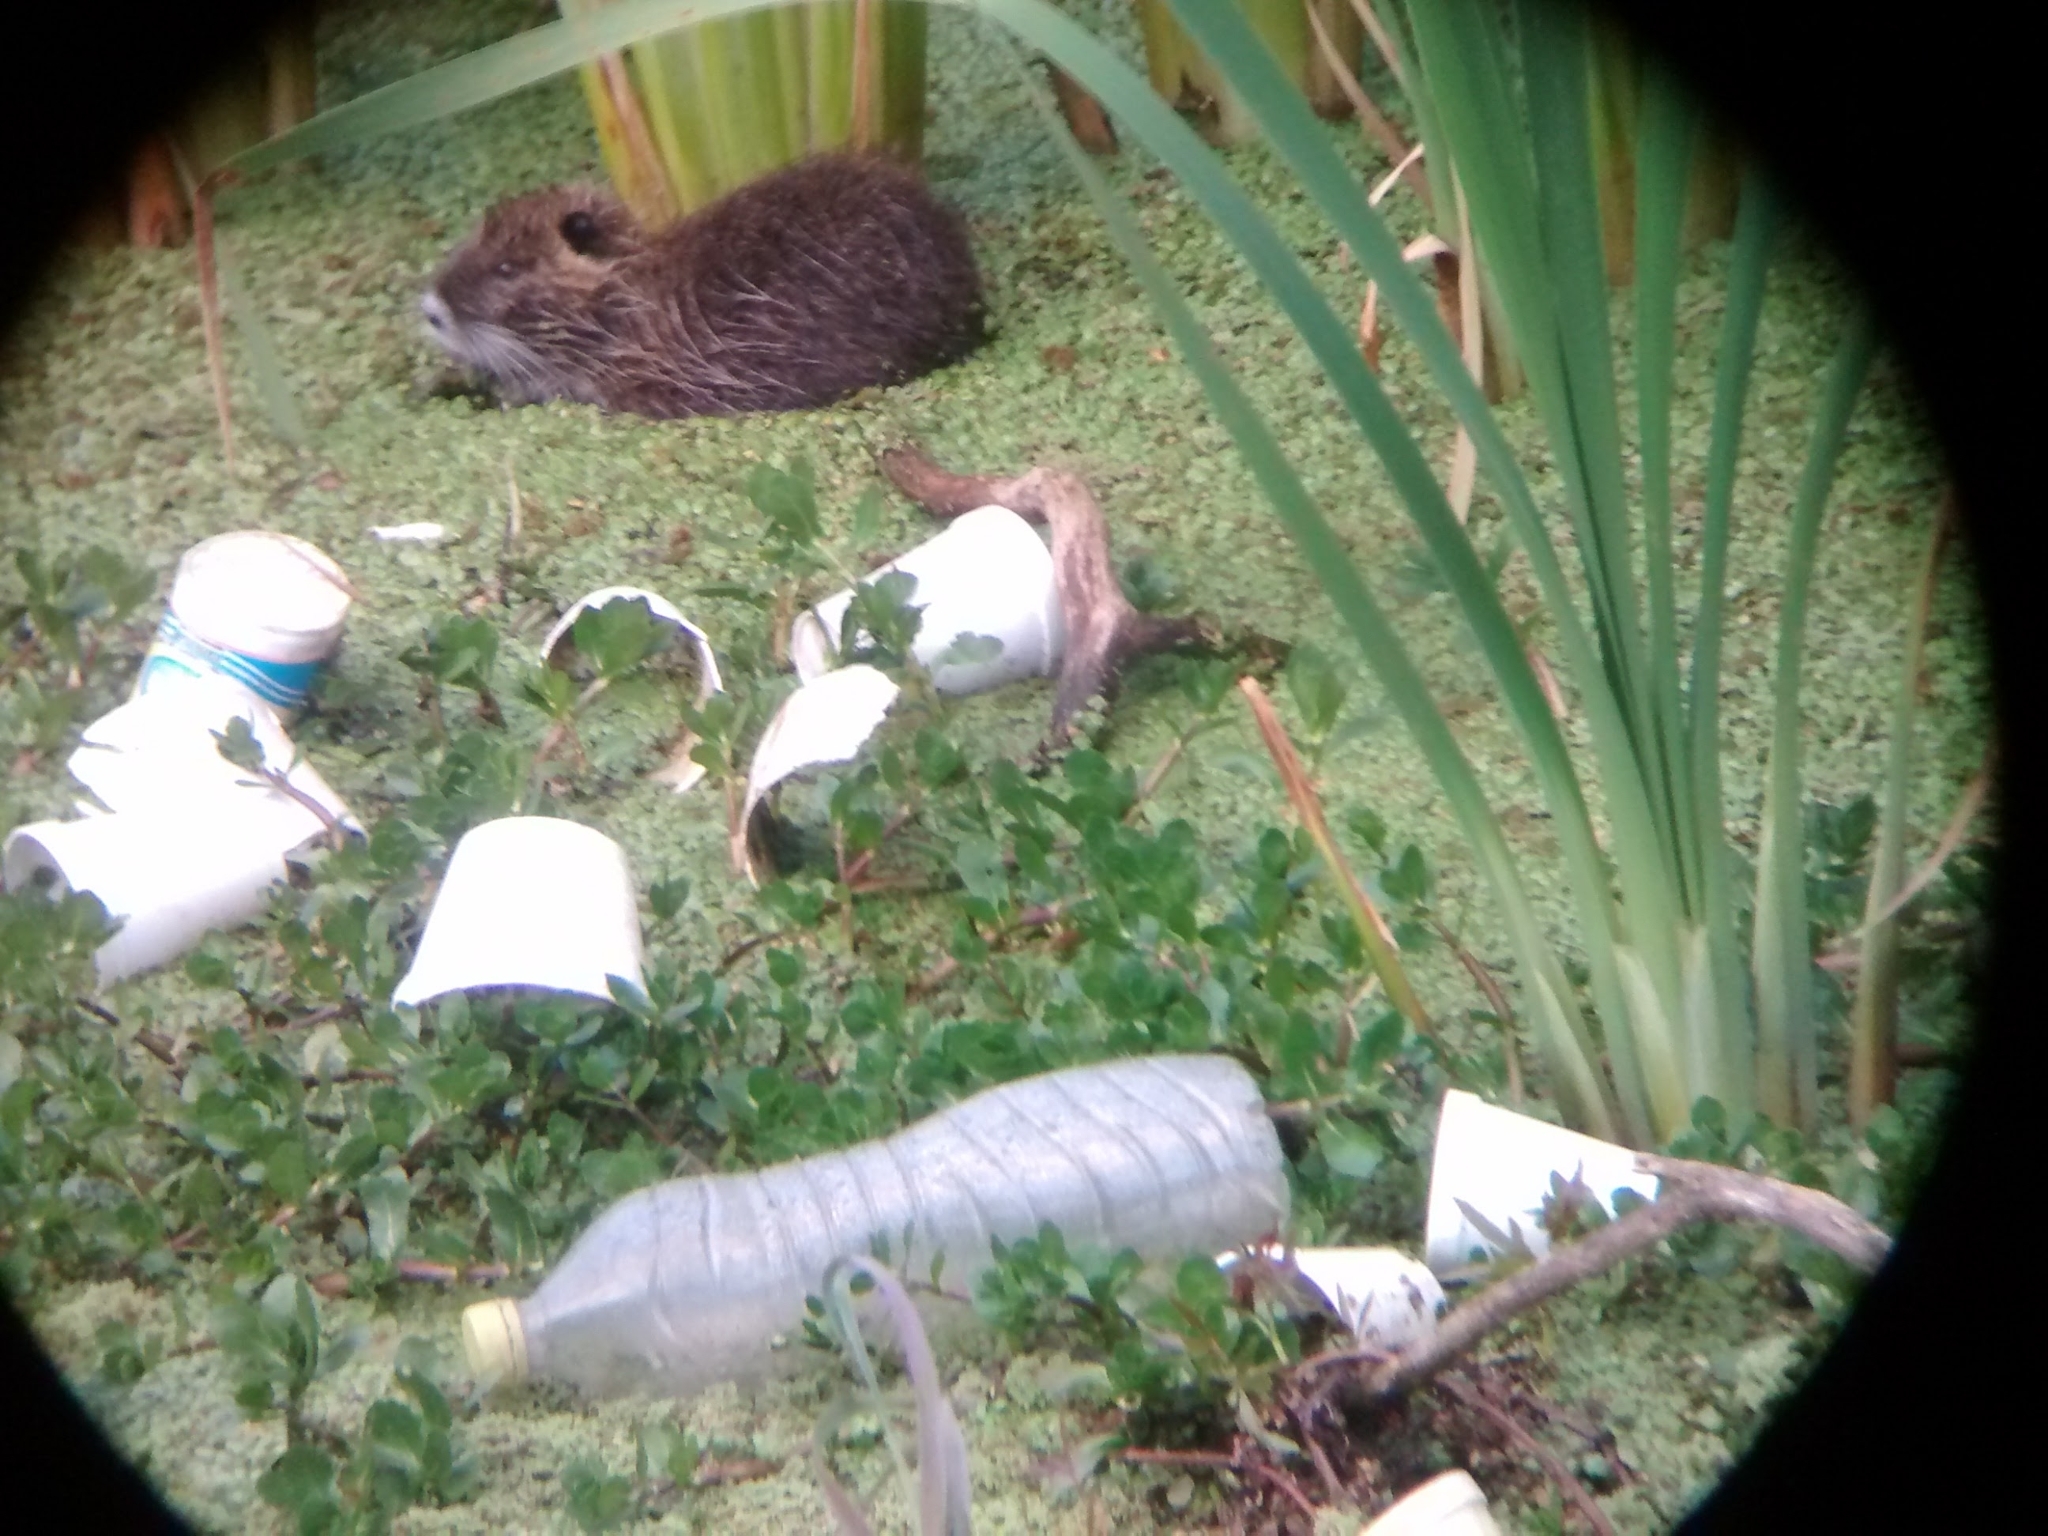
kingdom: Animalia
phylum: Chordata
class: Mammalia
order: Rodentia
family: Myocastoridae
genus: Myocastor
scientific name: Myocastor coypus
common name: Coypu
